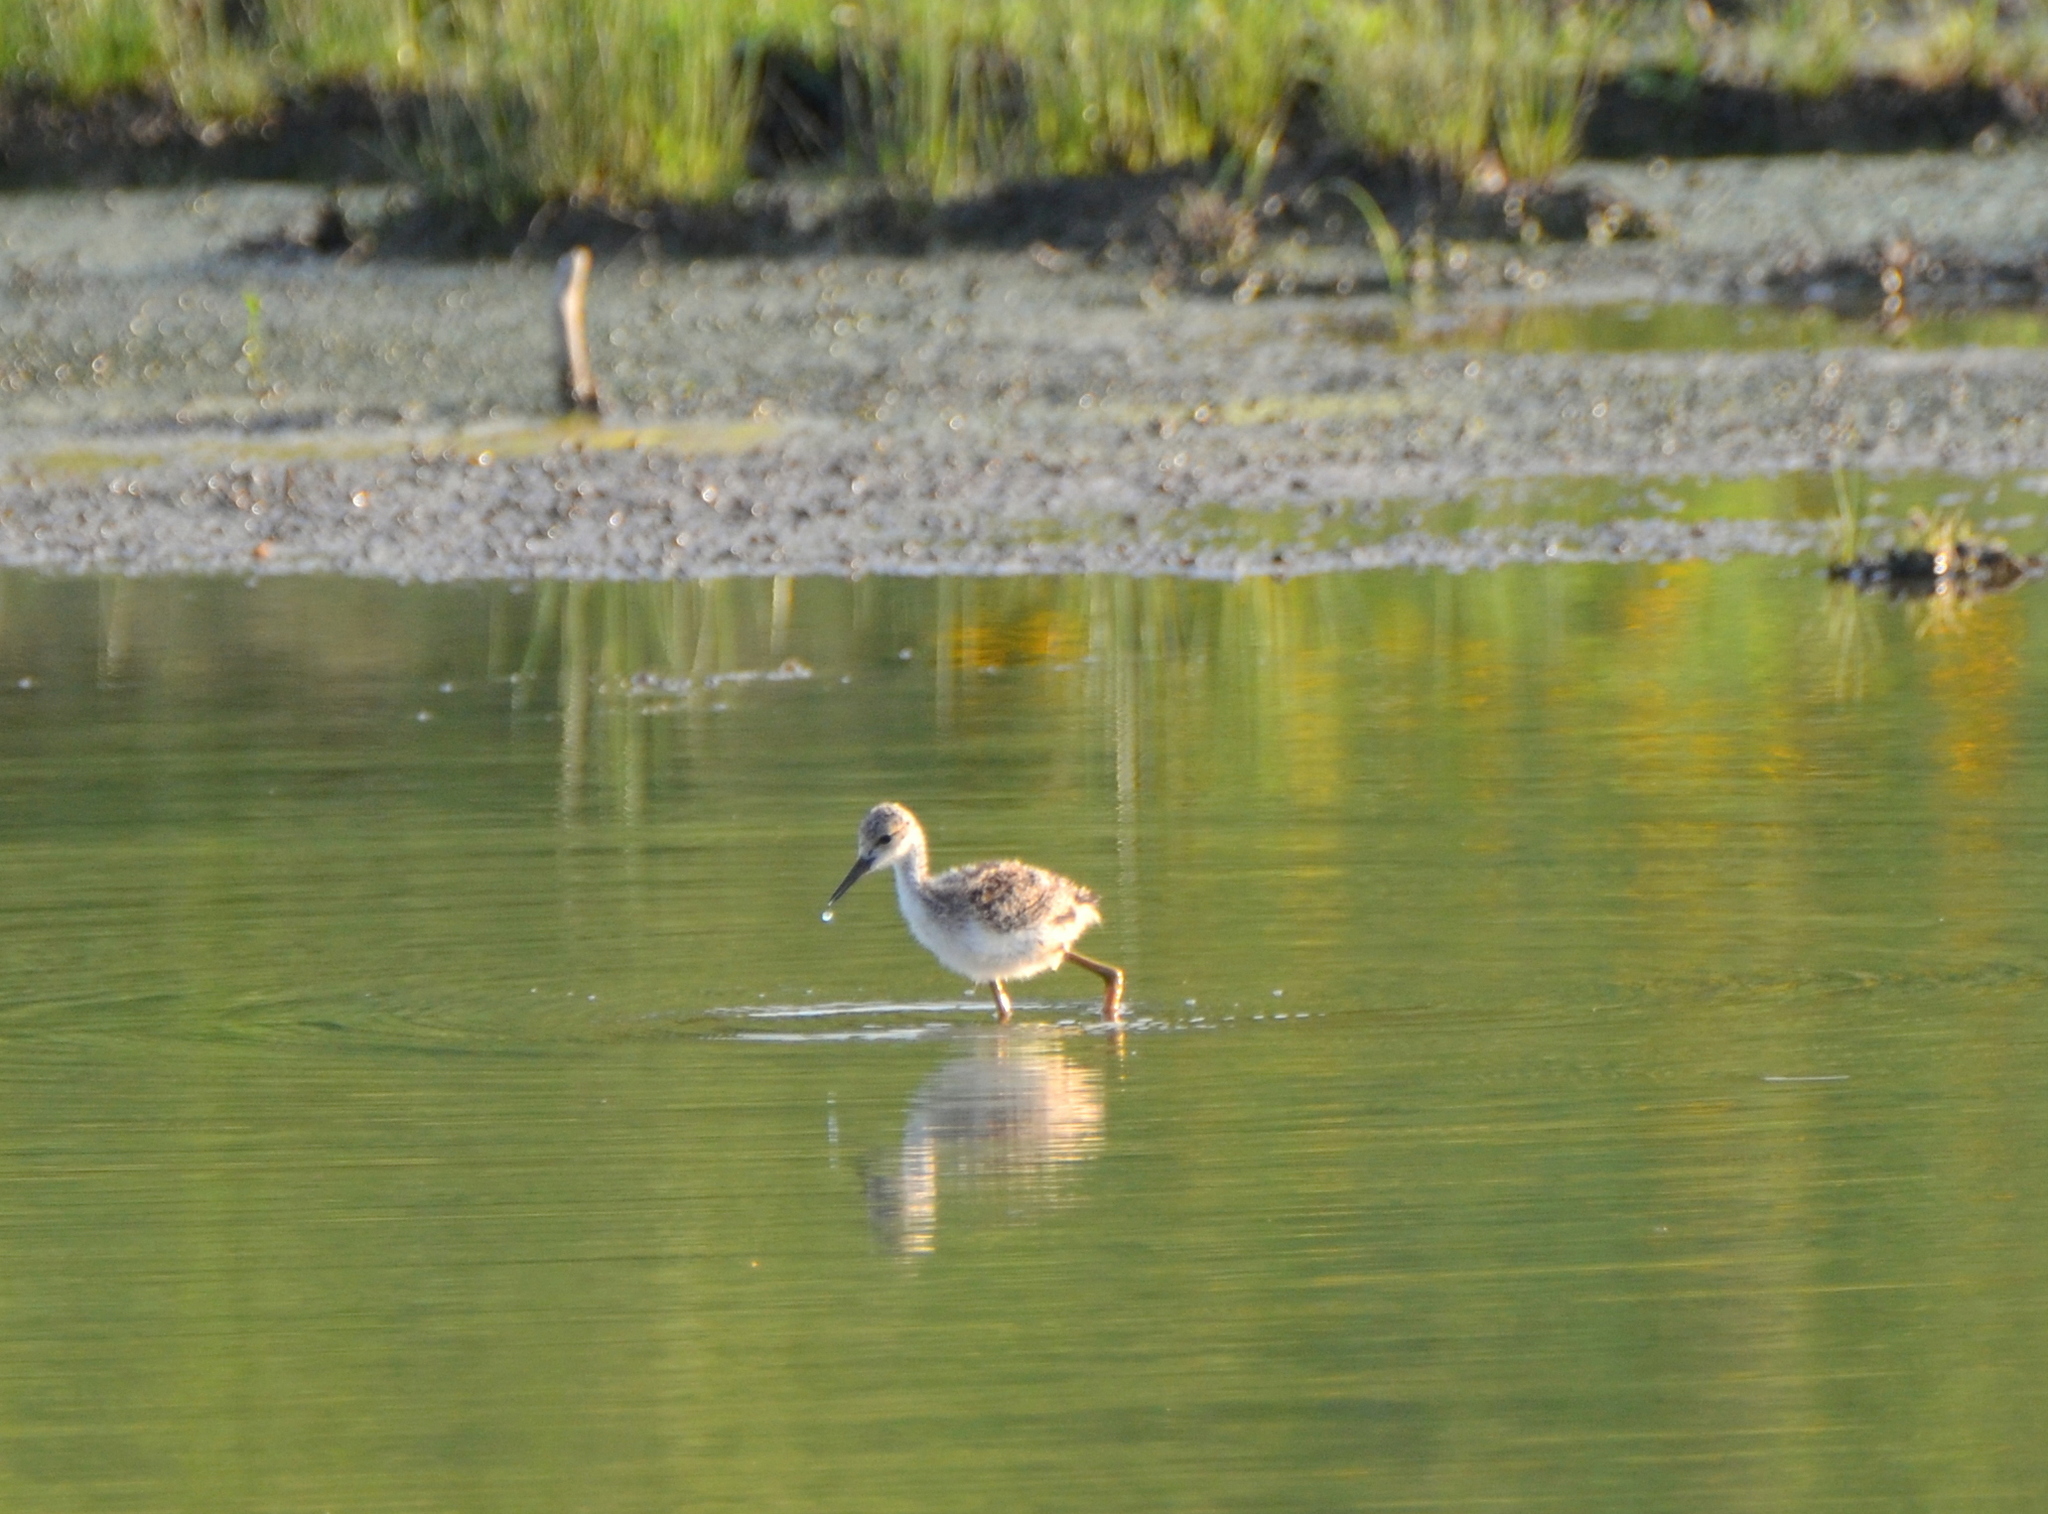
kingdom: Animalia
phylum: Chordata
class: Aves
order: Charadriiformes
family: Recurvirostridae
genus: Himantopus
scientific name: Himantopus mexicanus
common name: Black-necked stilt
